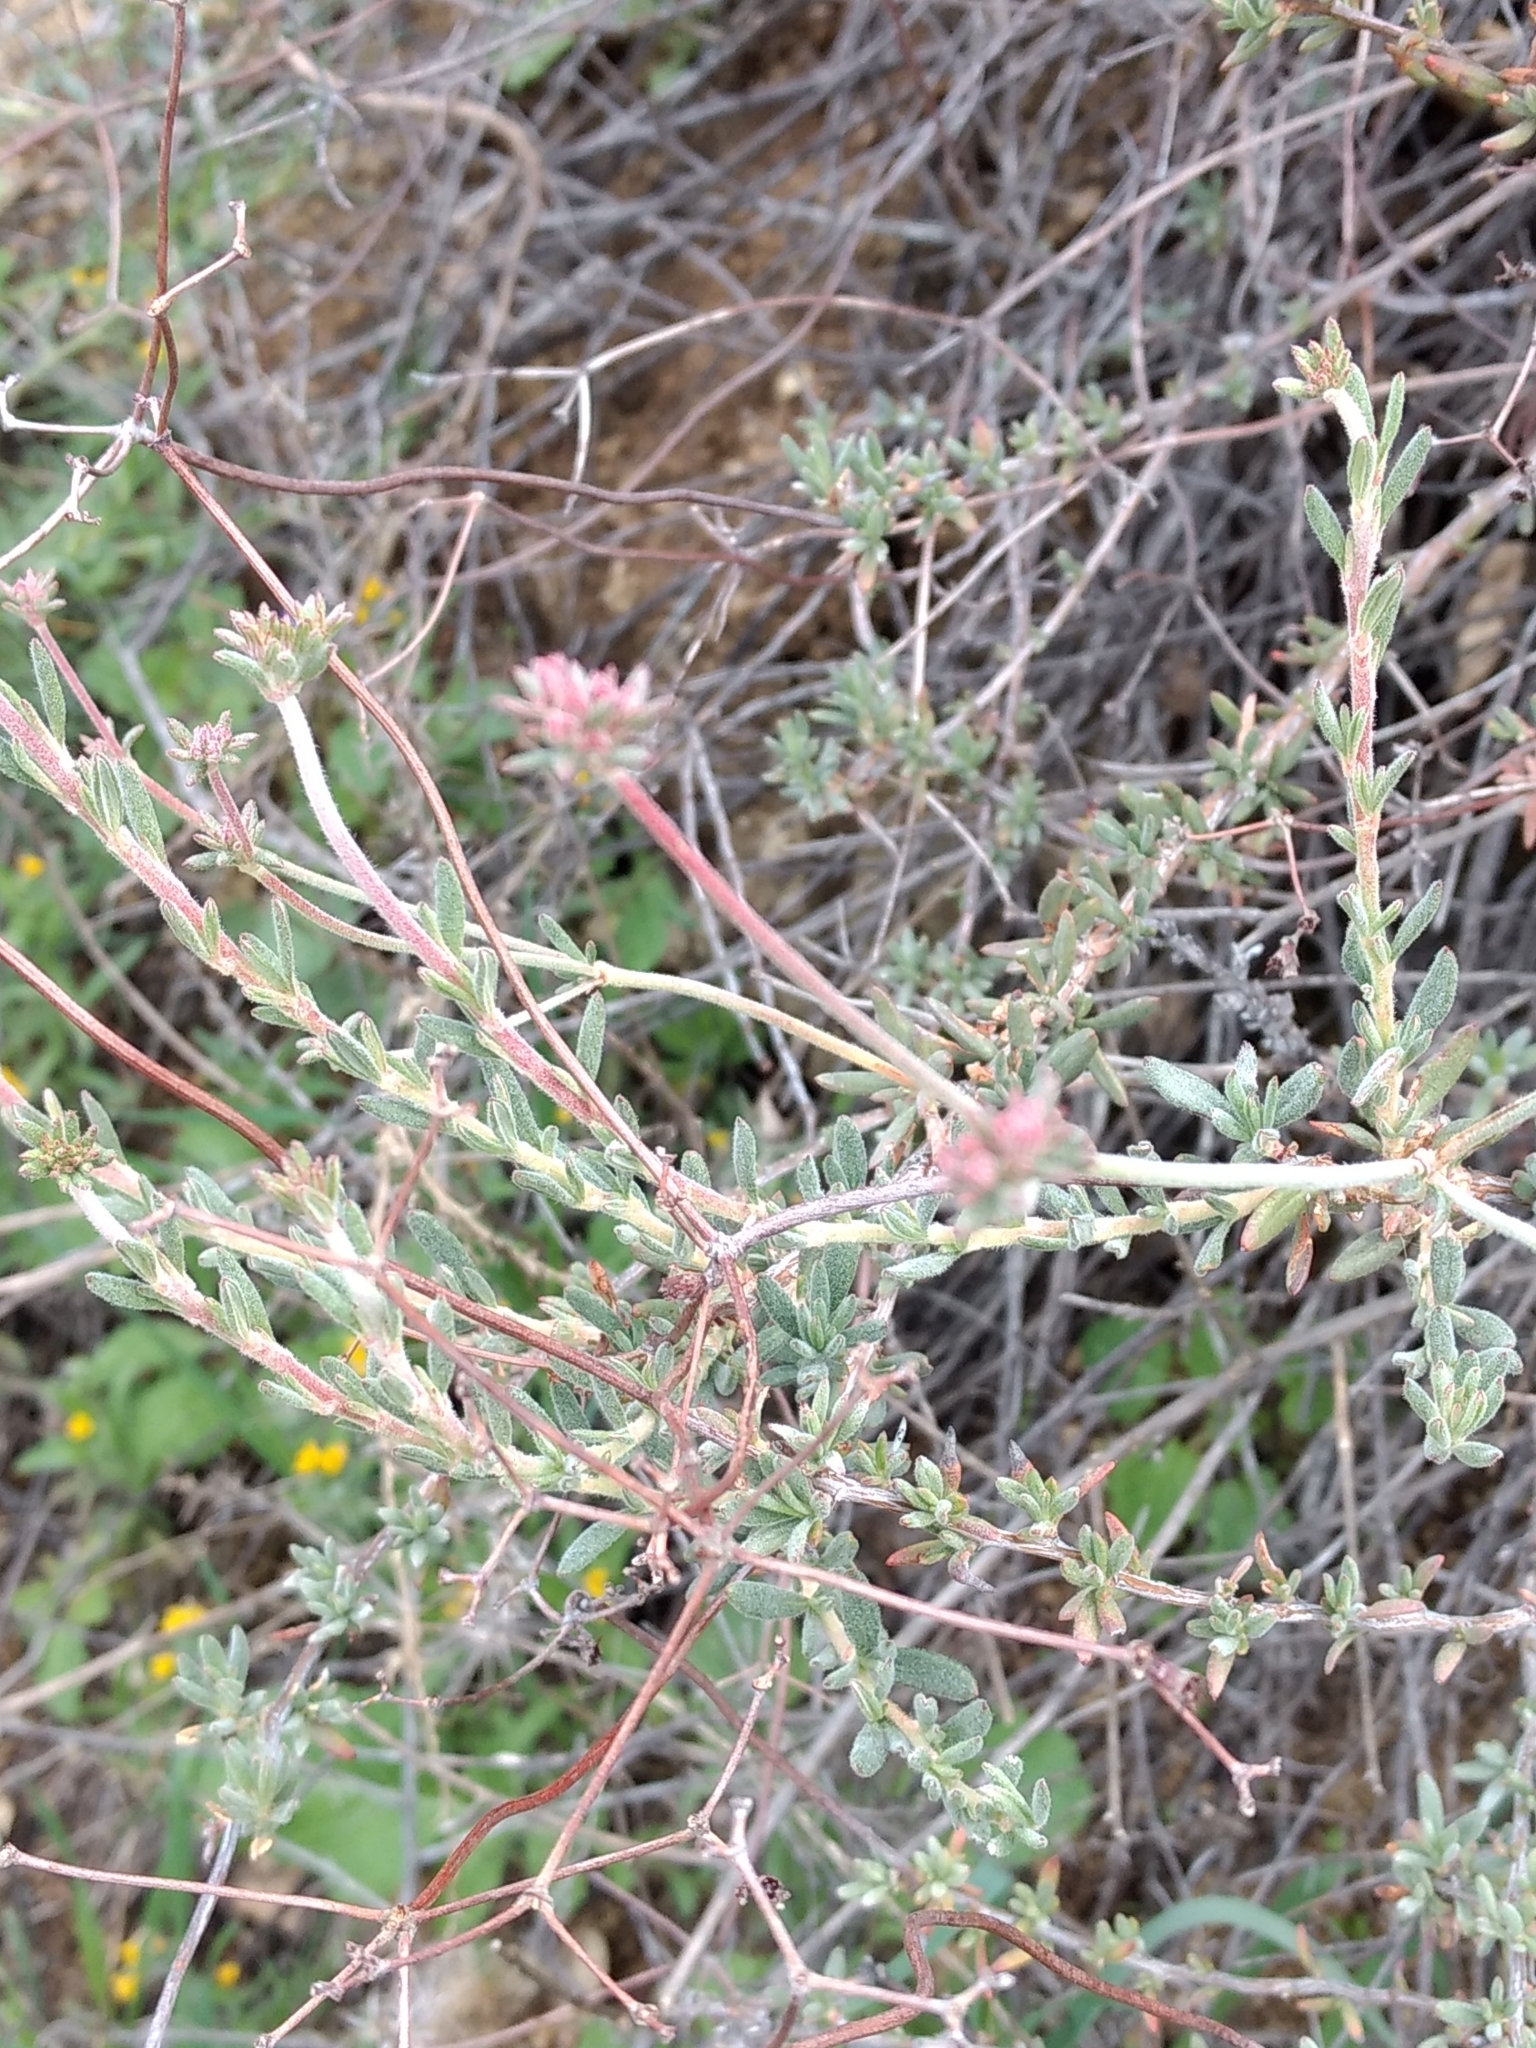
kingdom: Plantae
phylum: Tracheophyta
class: Magnoliopsida
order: Caryophyllales
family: Polygonaceae
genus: Eriogonum
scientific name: Eriogonum fasciculatum
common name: California wild buckwheat
